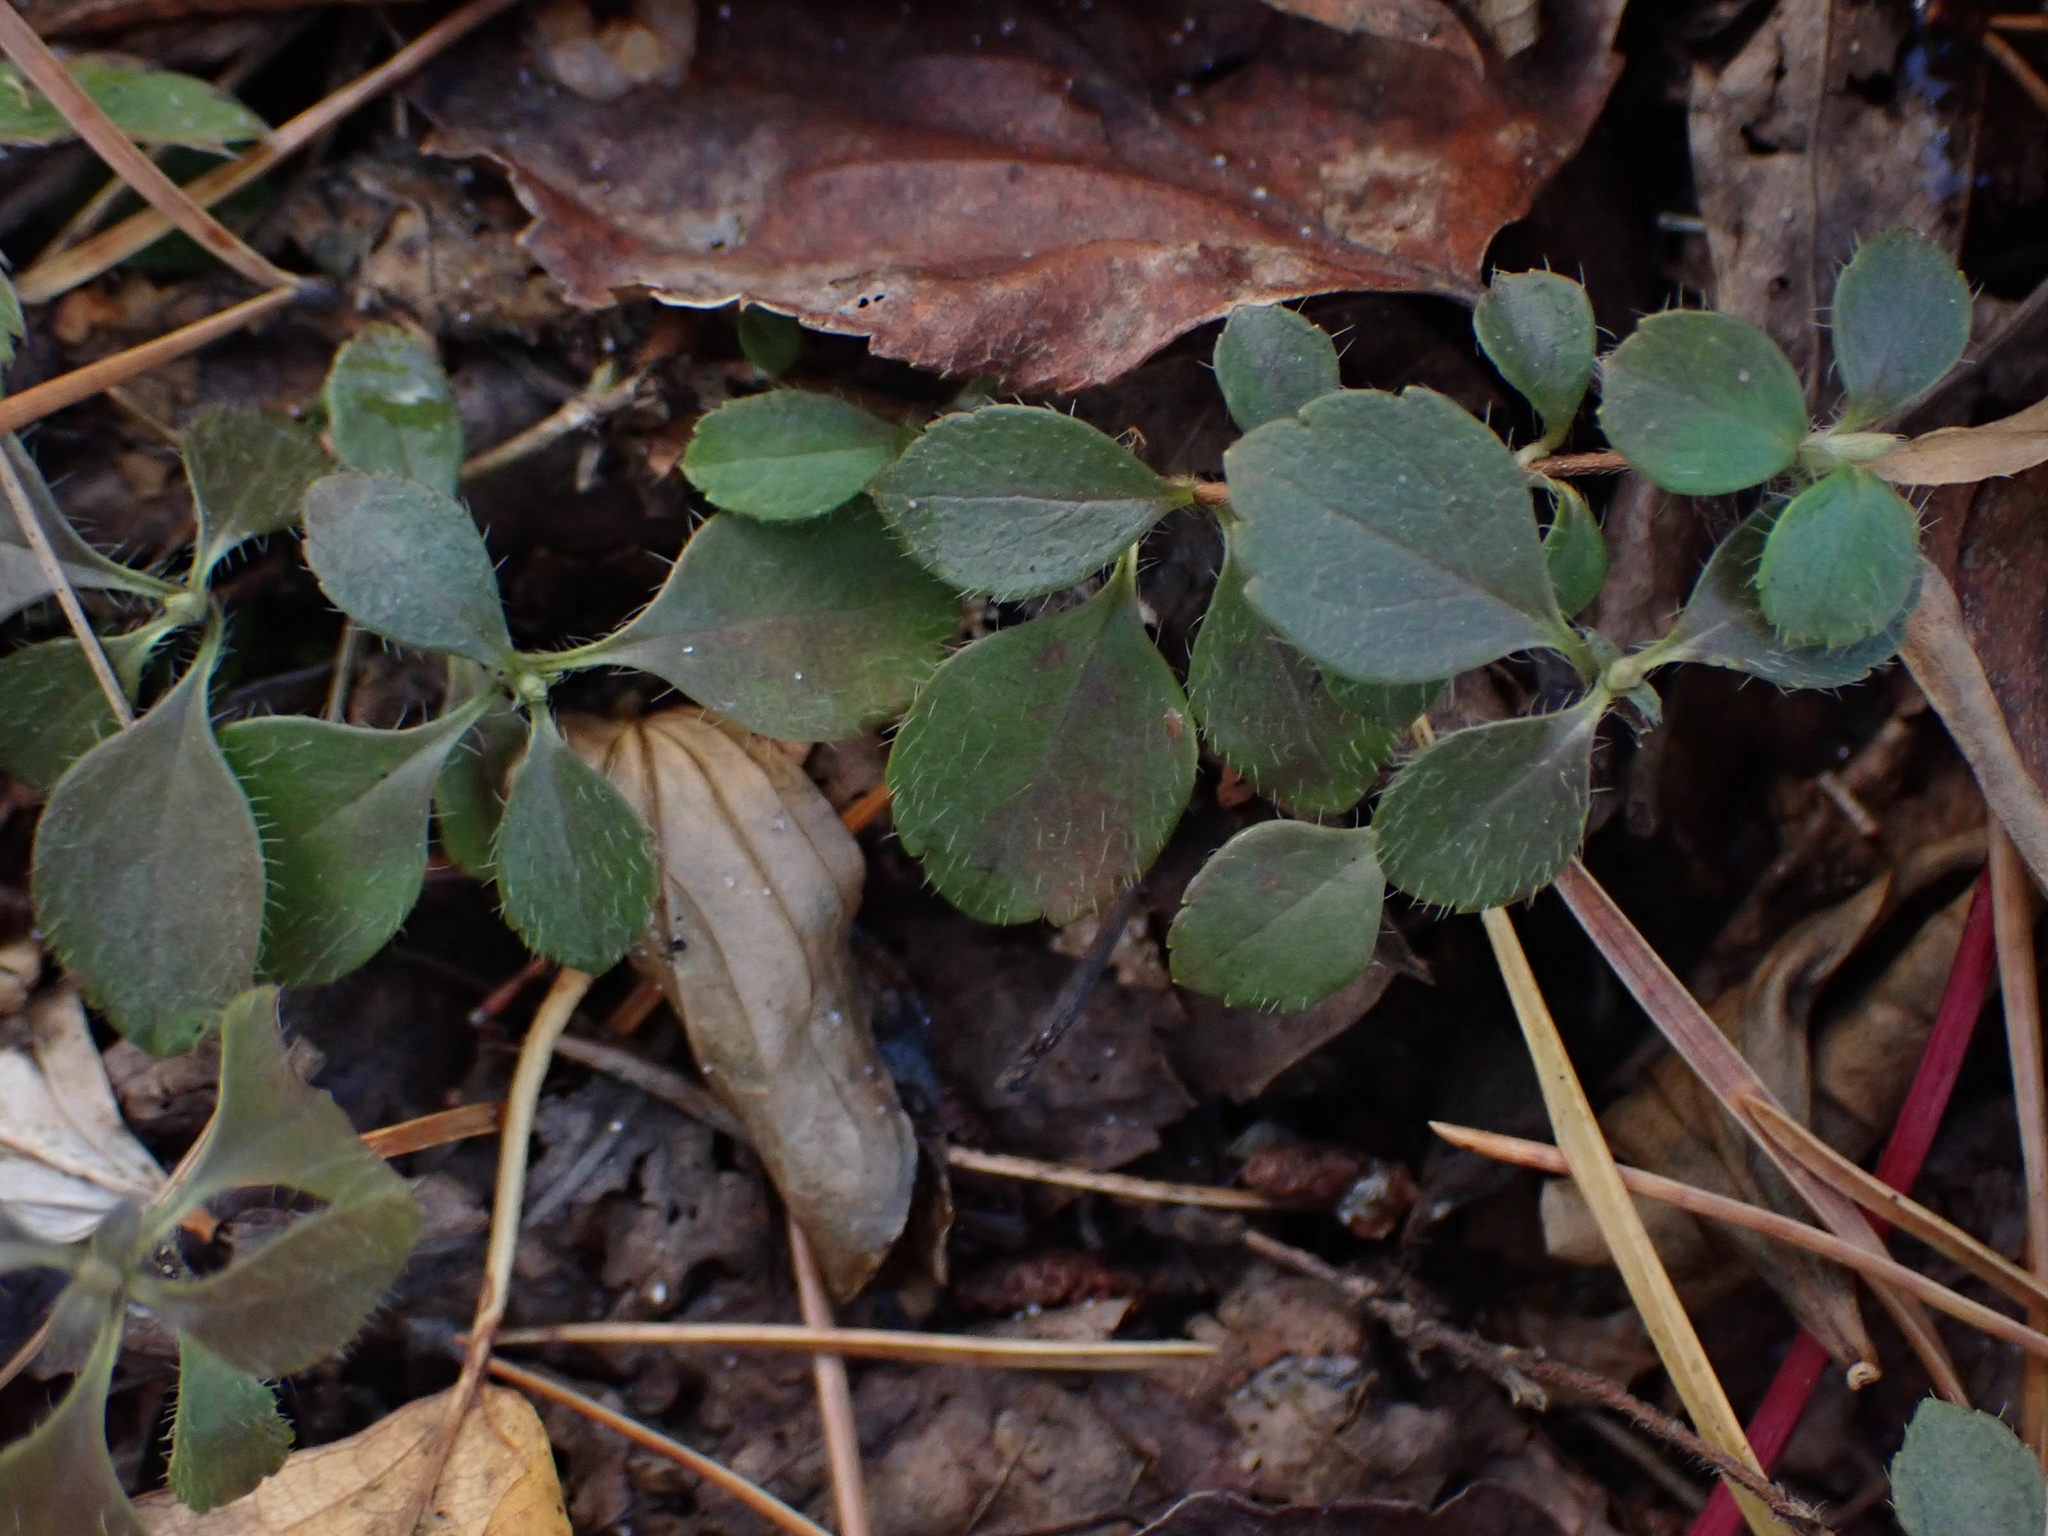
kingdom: Plantae
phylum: Tracheophyta
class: Magnoliopsida
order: Dipsacales
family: Caprifoliaceae
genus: Linnaea
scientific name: Linnaea borealis
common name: Twinflower
